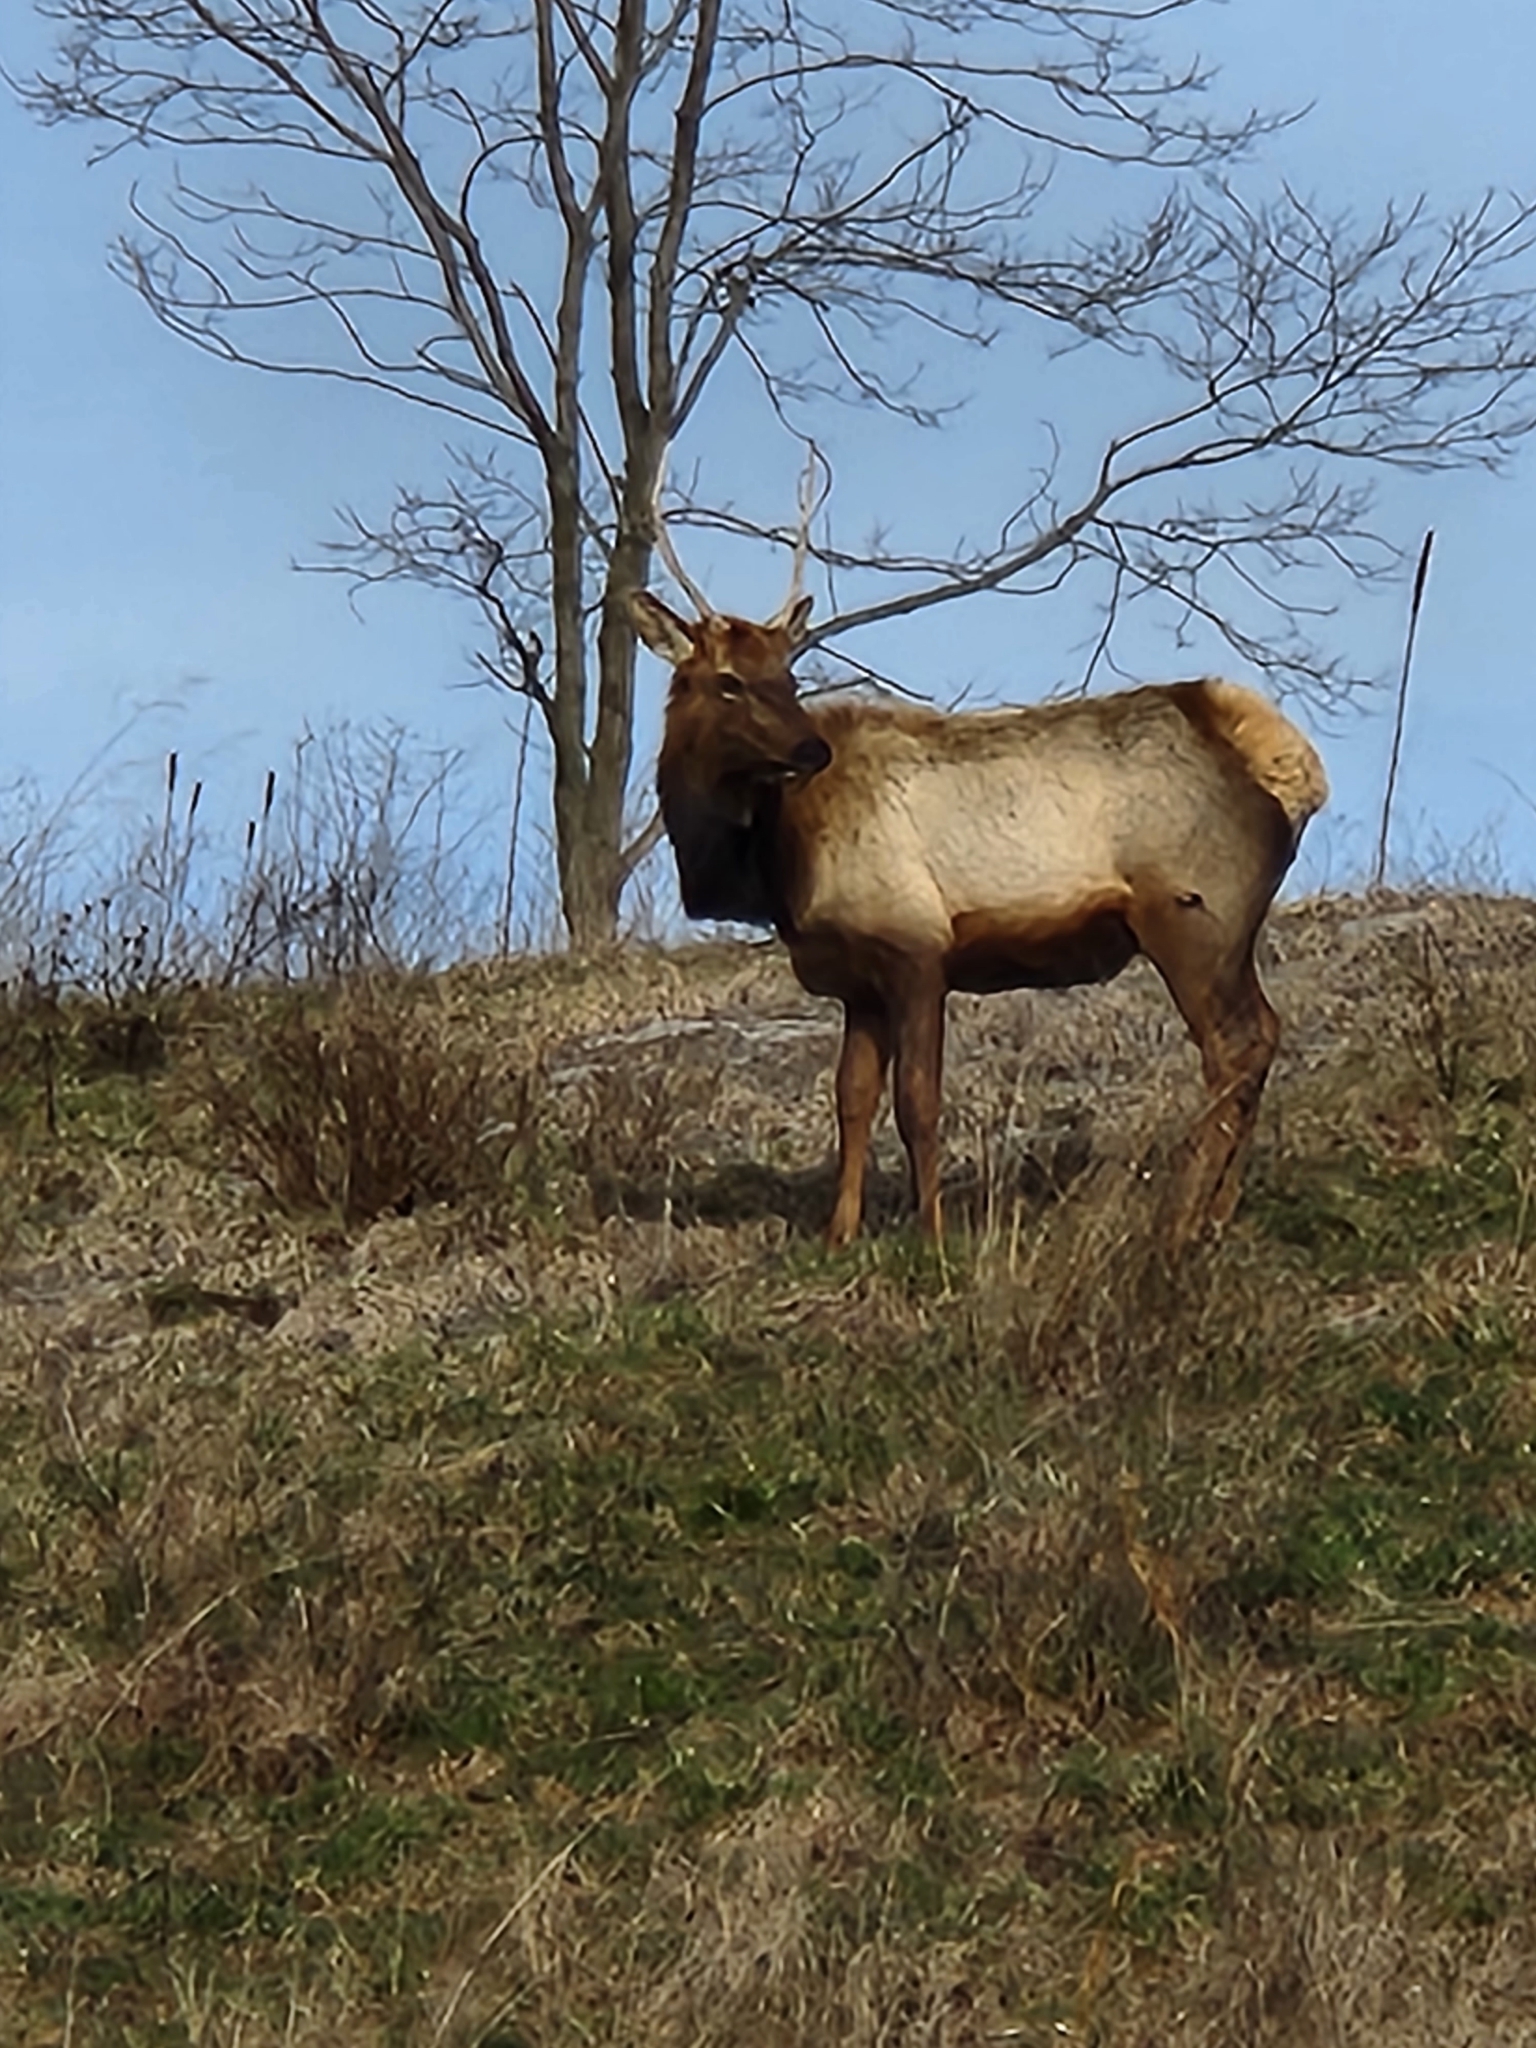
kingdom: Animalia
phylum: Chordata
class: Mammalia
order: Artiodactyla
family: Cervidae
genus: Cervus
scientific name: Cervus elaphus
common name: Red deer
